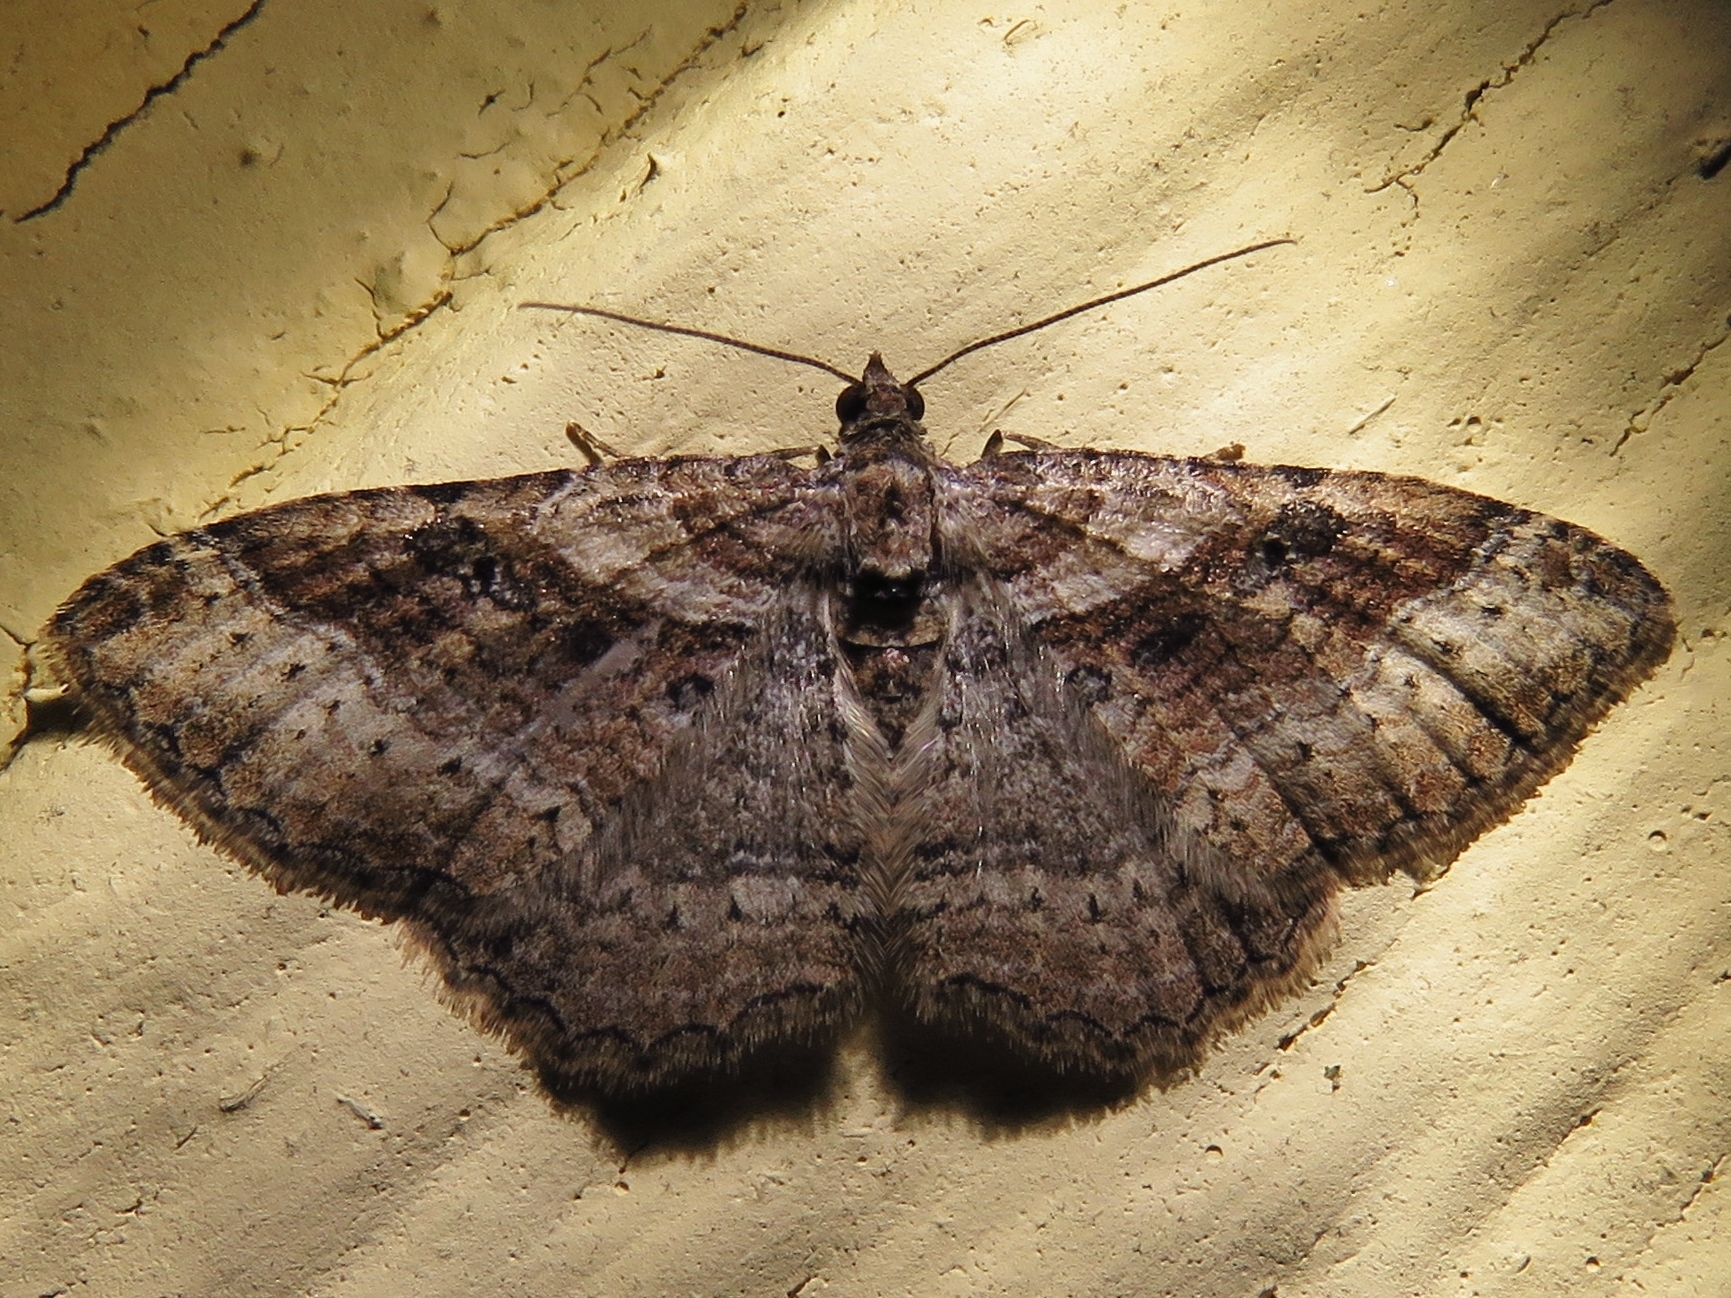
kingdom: Animalia
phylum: Arthropoda
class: Insecta
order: Lepidoptera
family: Geometridae
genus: Costaconvexa
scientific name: Costaconvexa centrostrigaria
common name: Bent-line carpet
